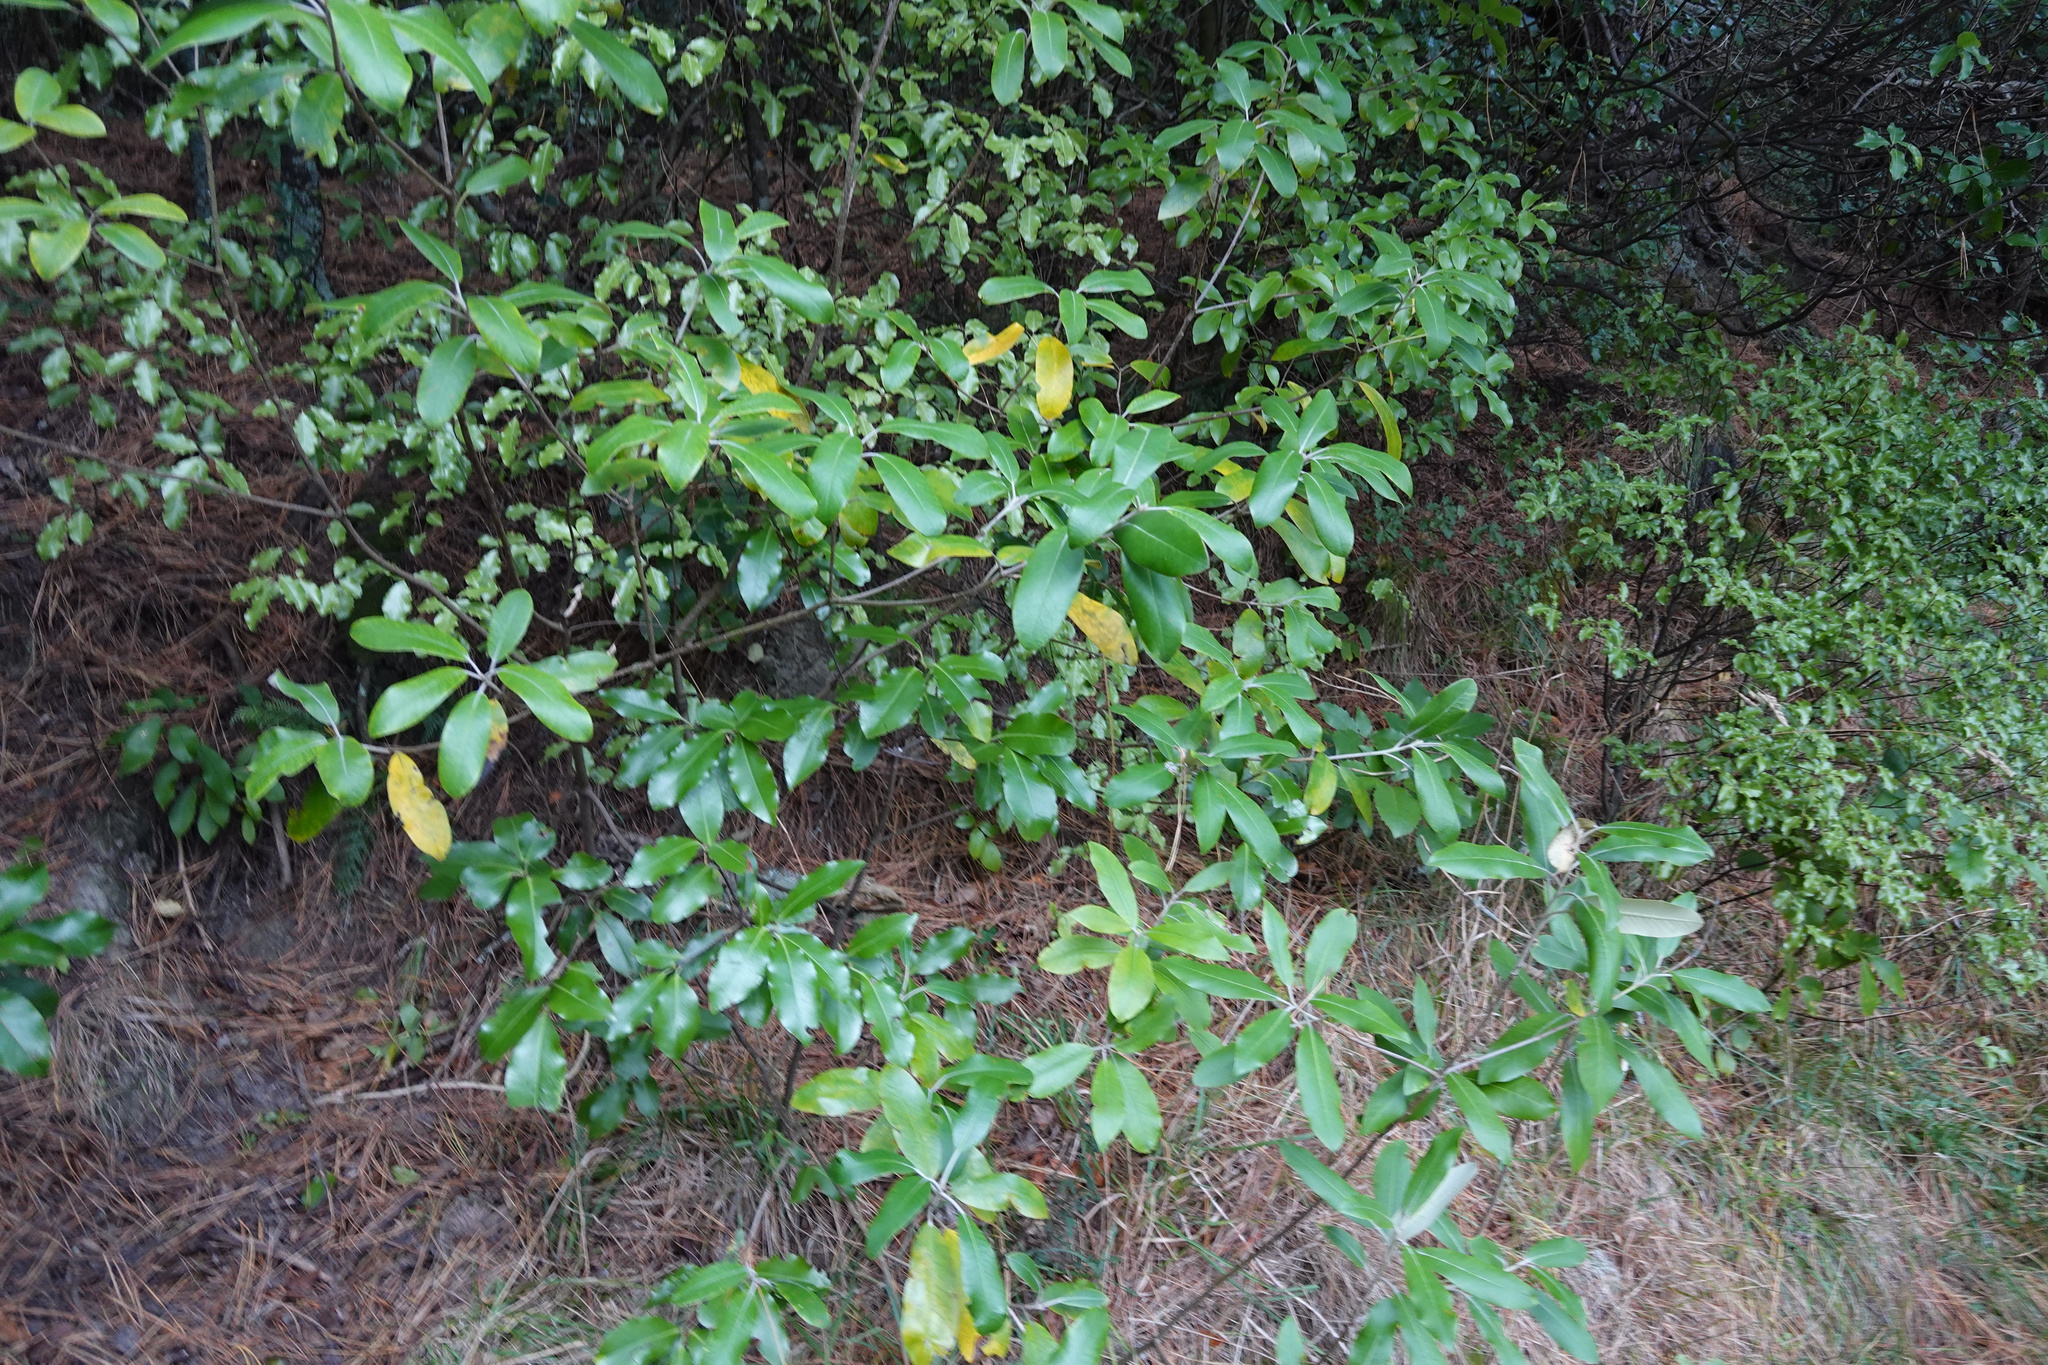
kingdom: Plantae
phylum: Tracheophyta
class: Magnoliopsida
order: Apiales
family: Pittosporaceae
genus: Pittosporum
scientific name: Pittosporum ralphii
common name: Ralph's desertwillow
